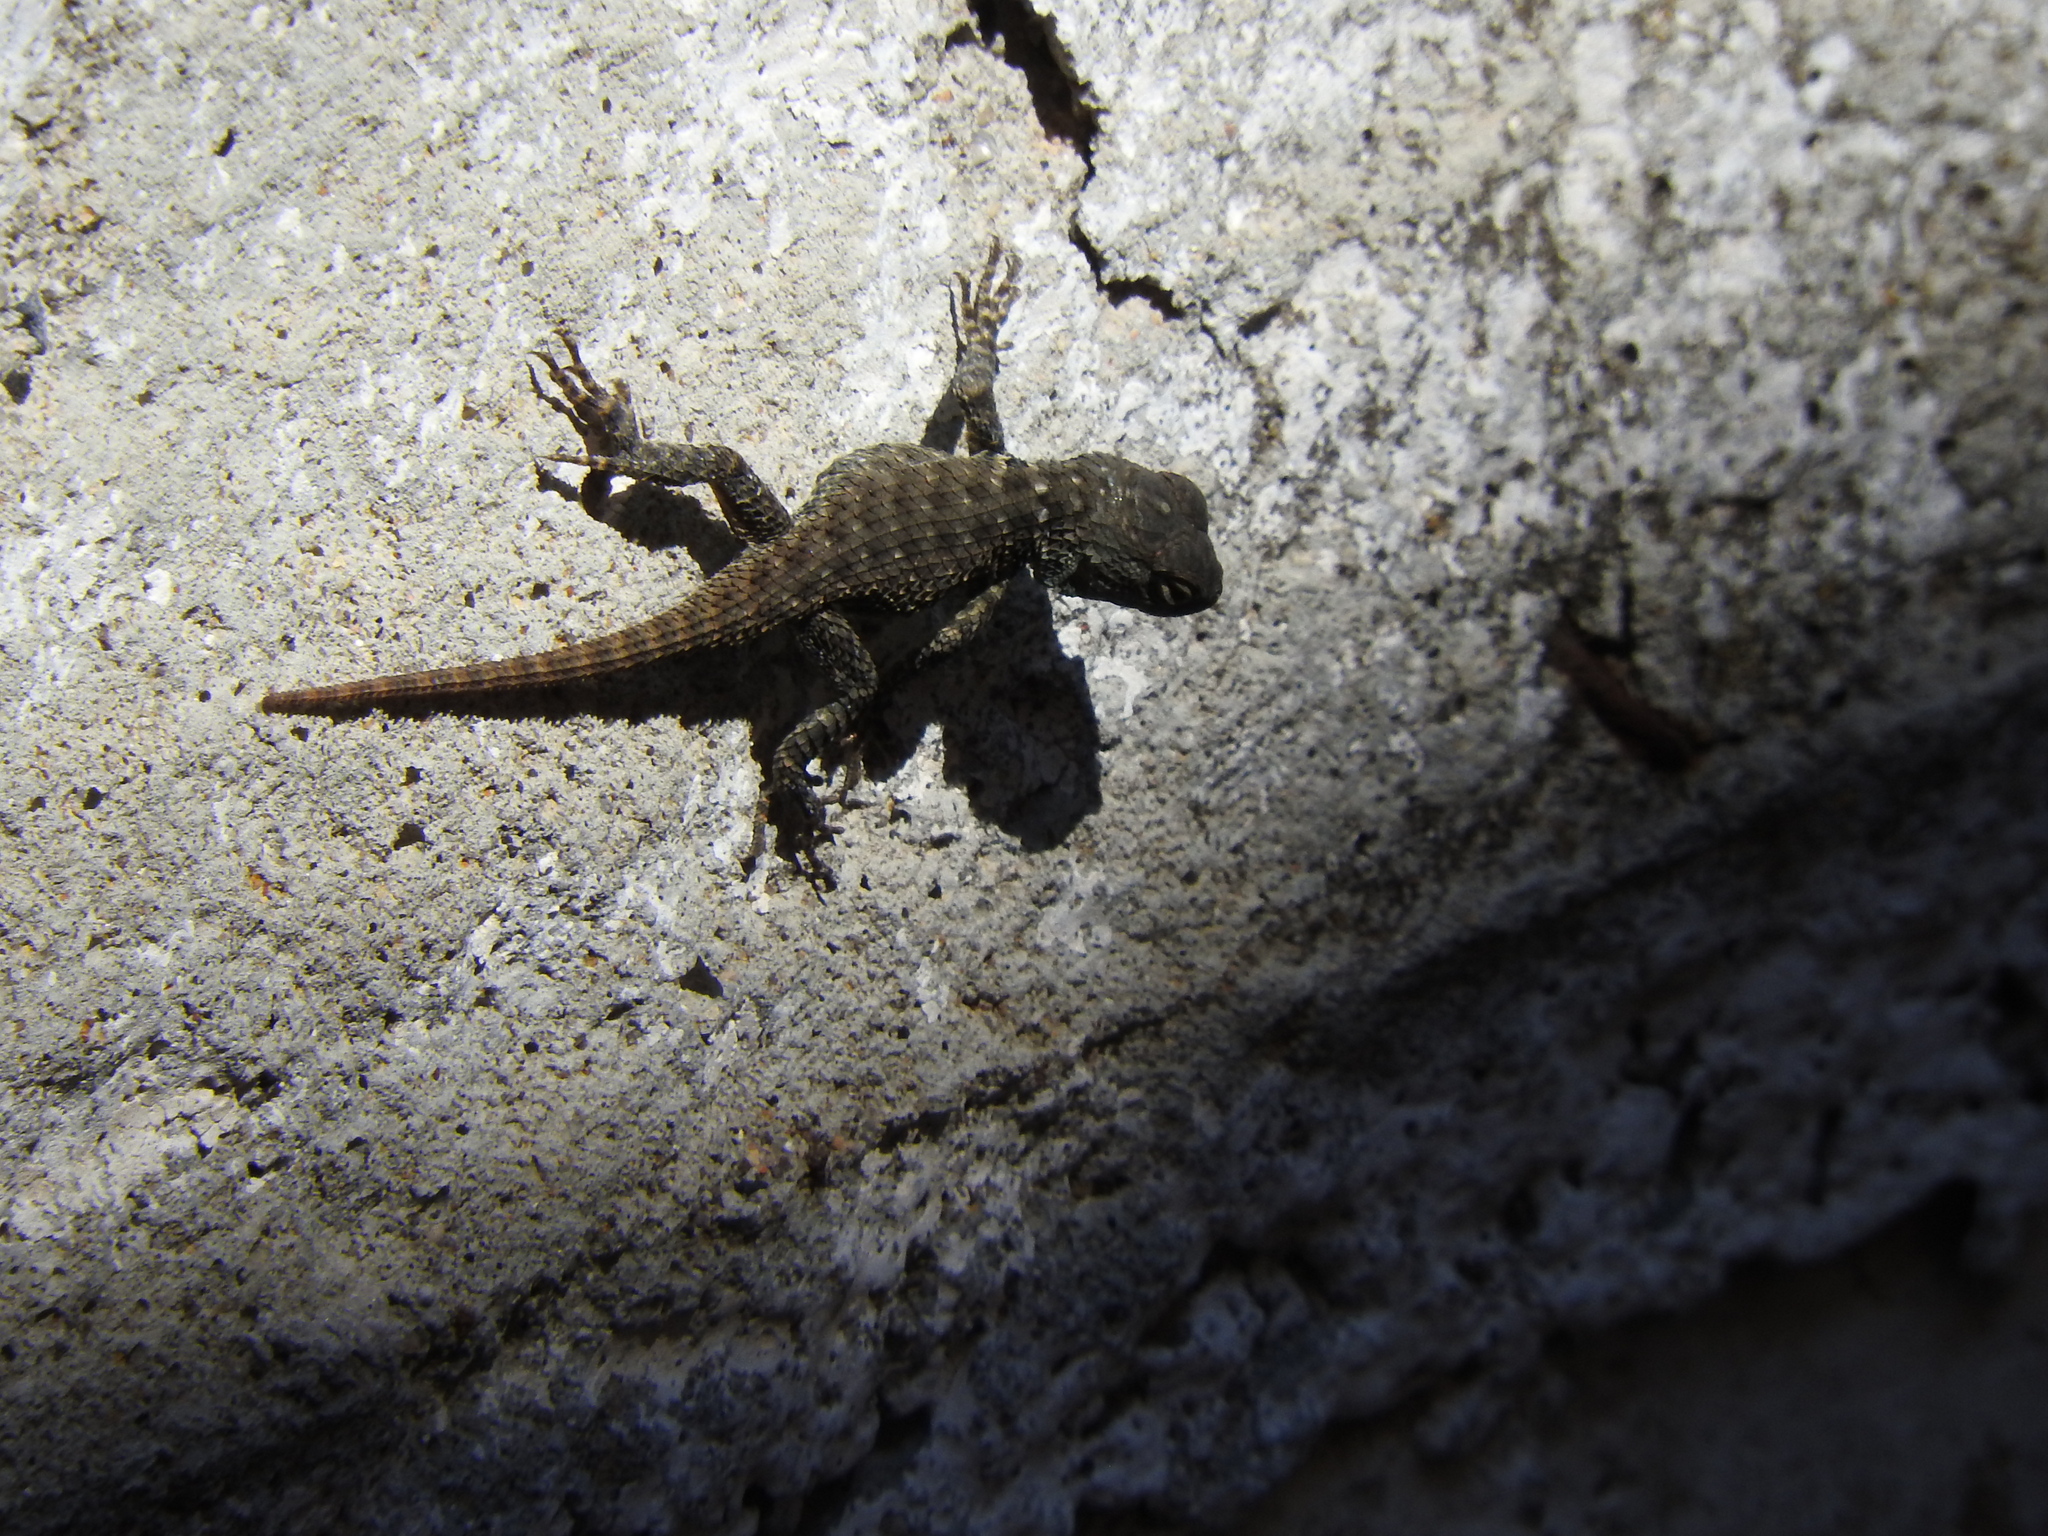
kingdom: Animalia
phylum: Chordata
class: Squamata
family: Phrynosomatidae
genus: Sceloporus
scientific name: Sceloporus torquatus
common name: Central plateau torquate lizard [melanogaster]
